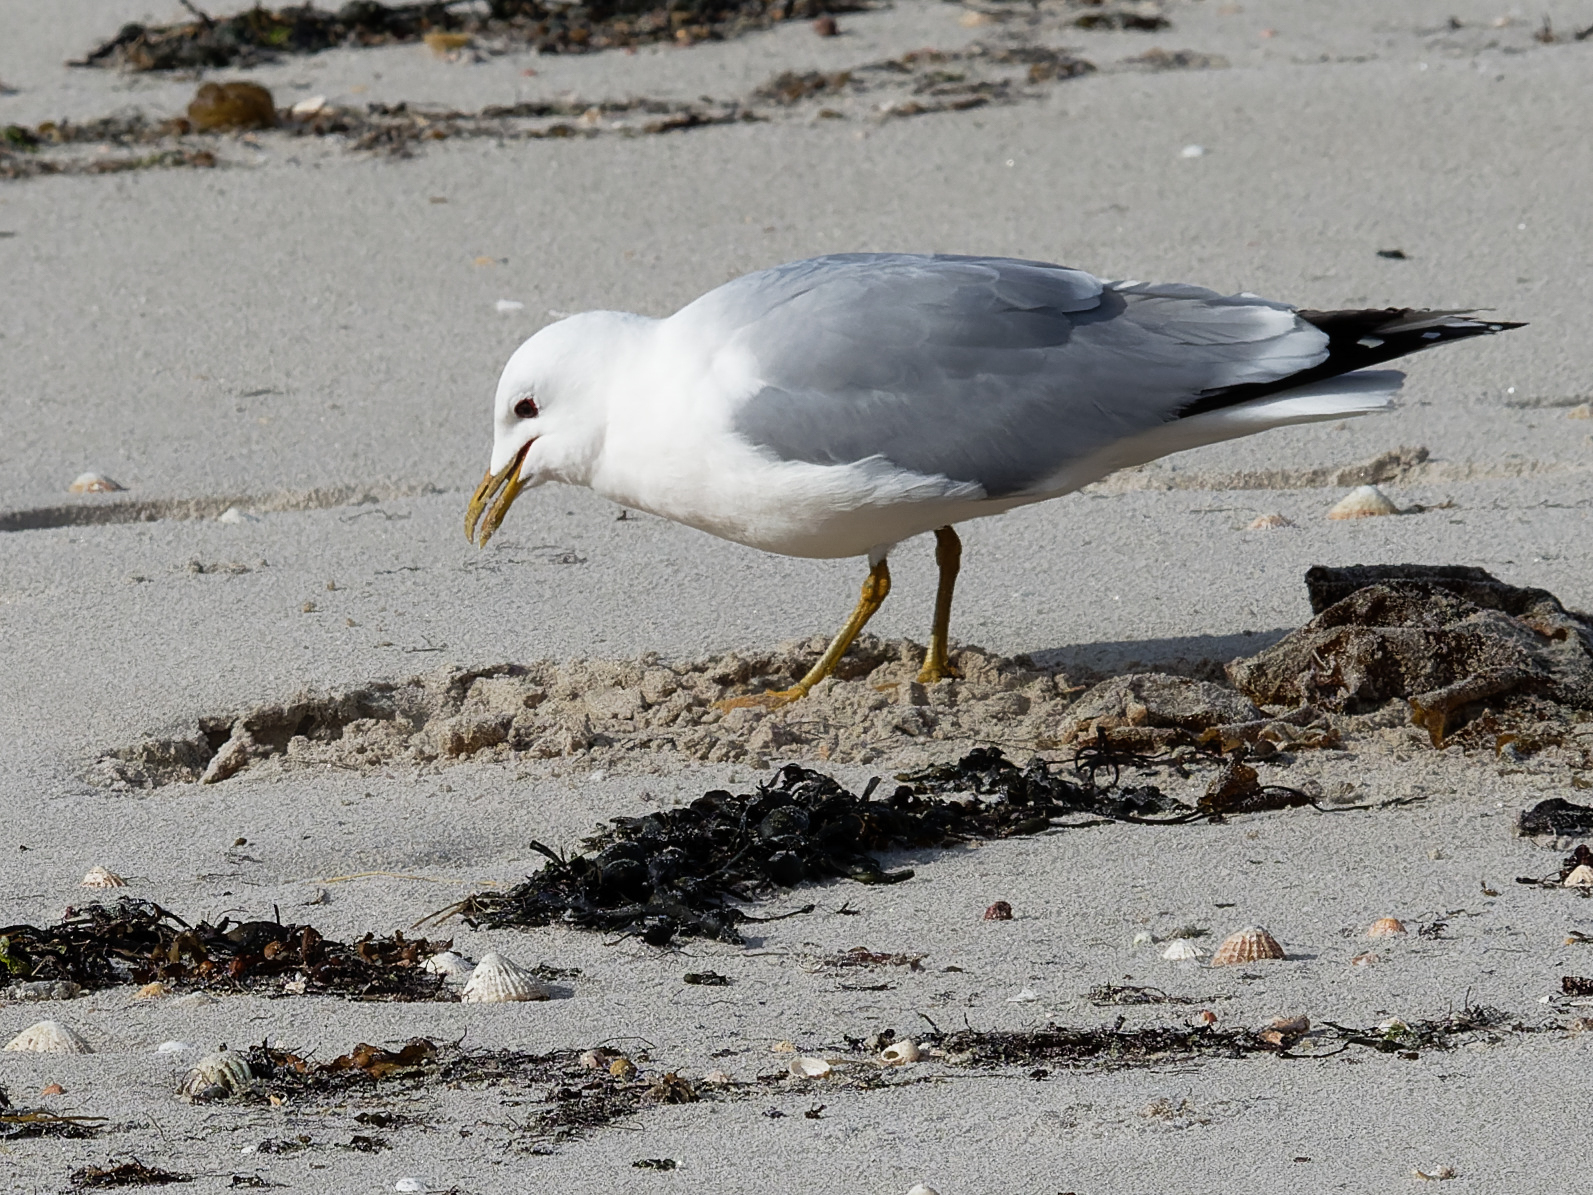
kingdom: Animalia
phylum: Chordata
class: Aves
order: Charadriiformes
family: Laridae
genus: Larus
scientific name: Larus canus
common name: Mew gull
